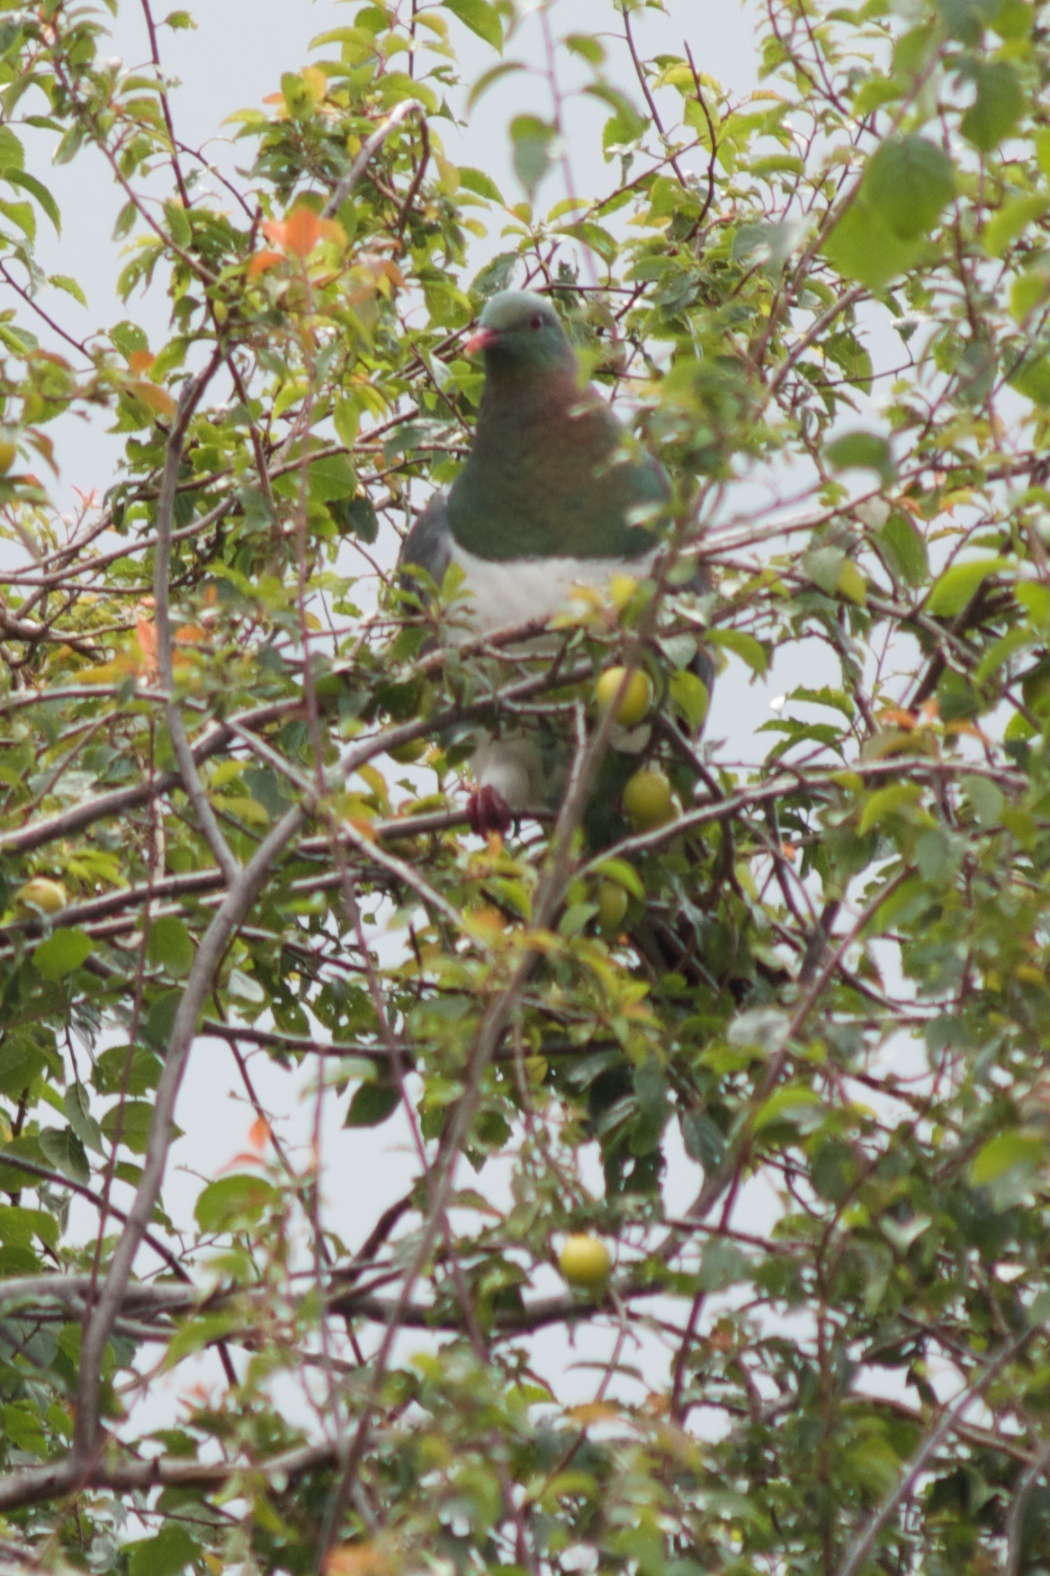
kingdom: Animalia
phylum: Chordata
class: Aves
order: Columbiformes
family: Columbidae
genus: Hemiphaga
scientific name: Hemiphaga novaeseelandiae
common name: New zealand pigeon
